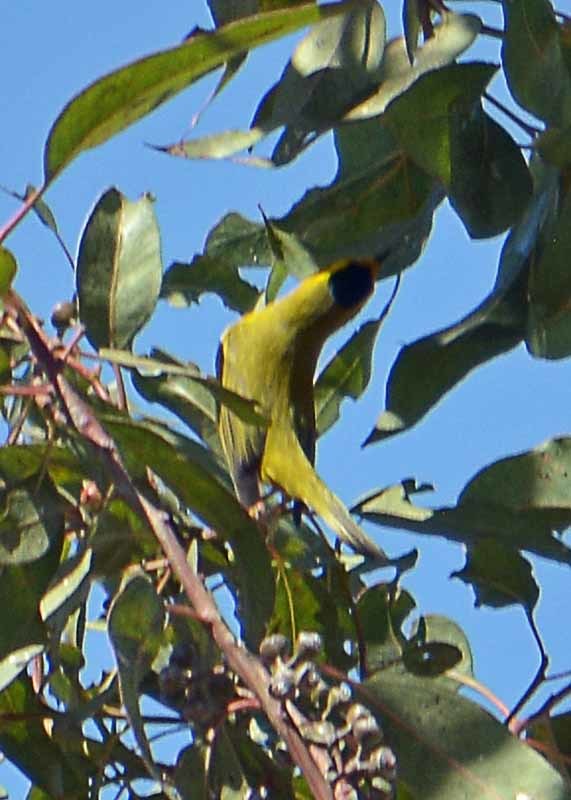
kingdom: Animalia
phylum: Chordata
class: Aves
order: Passeriformes
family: Parulidae
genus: Cardellina
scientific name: Cardellina pusilla
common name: Wilson's warbler
